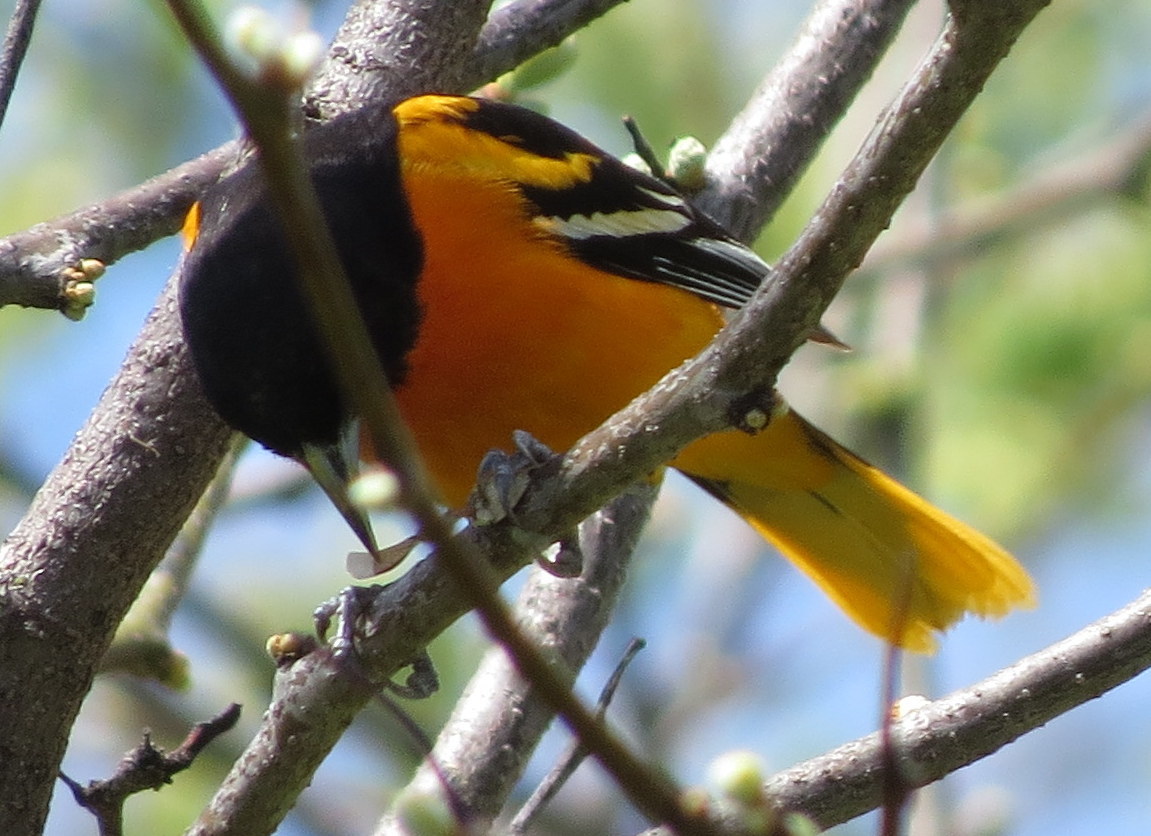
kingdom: Animalia
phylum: Chordata
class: Aves
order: Passeriformes
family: Icteridae
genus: Icterus
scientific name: Icterus galbula
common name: Baltimore oriole
